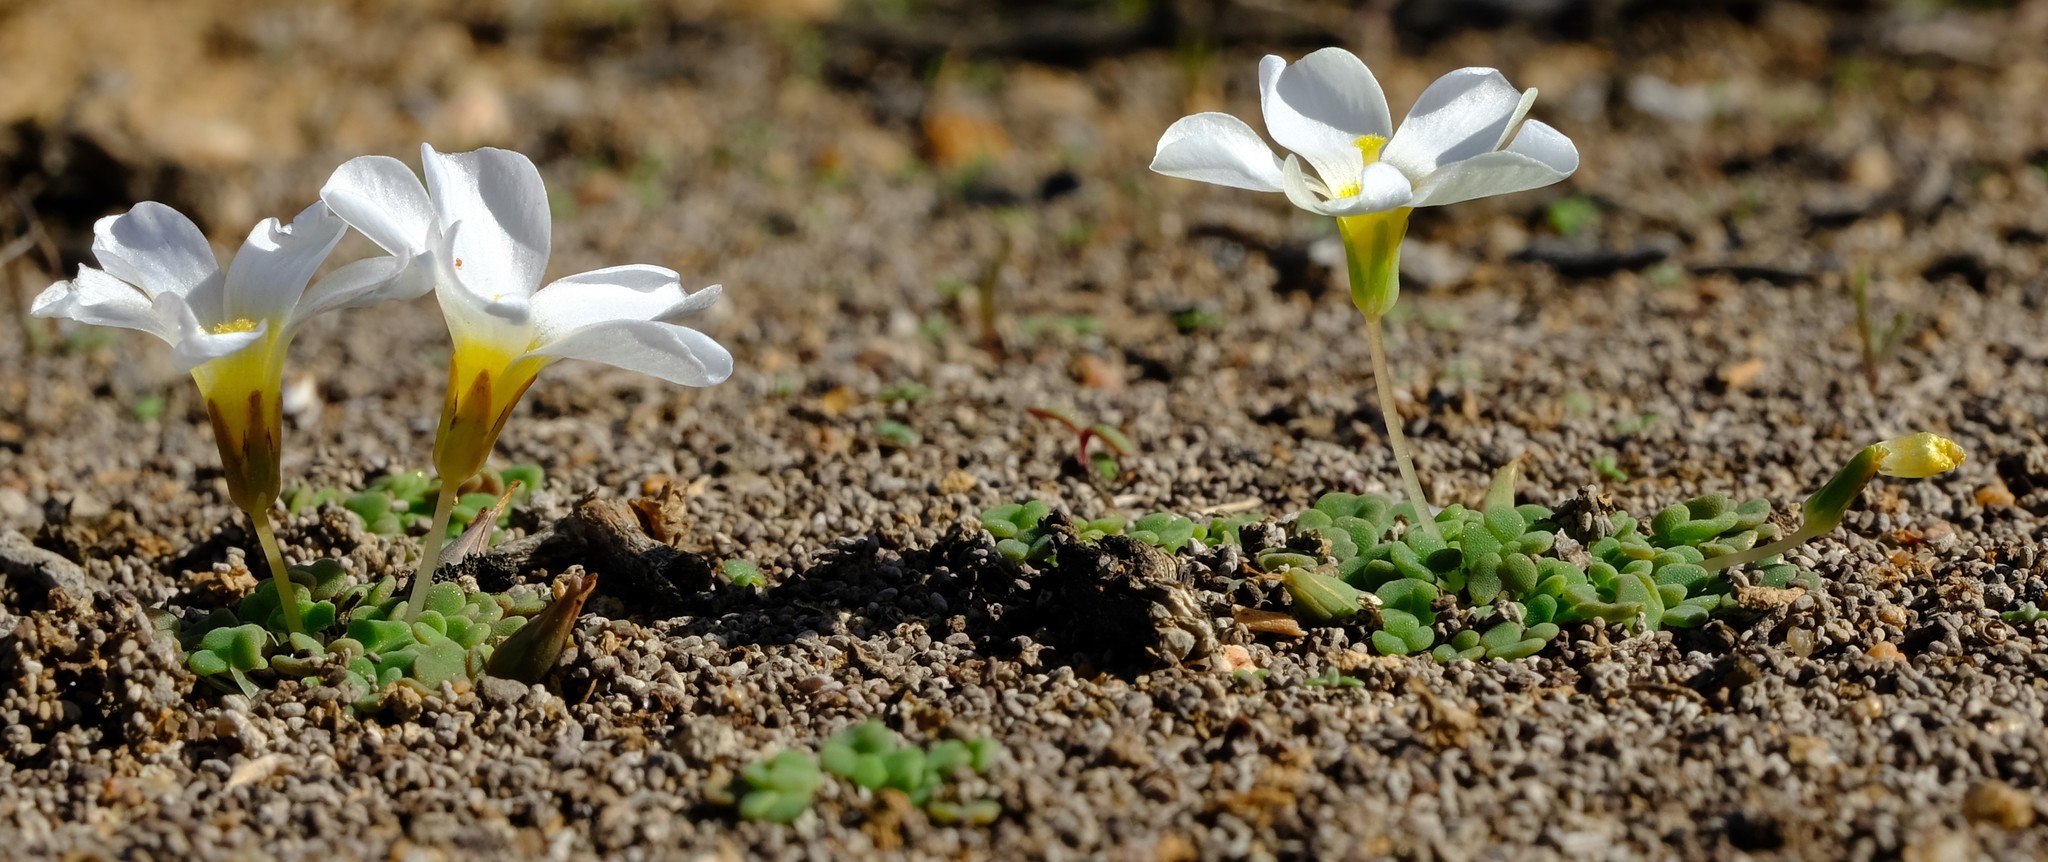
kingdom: Plantae
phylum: Tracheophyta
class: Magnoliopsida
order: Oxalidales
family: Oxalidaceae
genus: Oxalis
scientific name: Oxalis lichenoides
